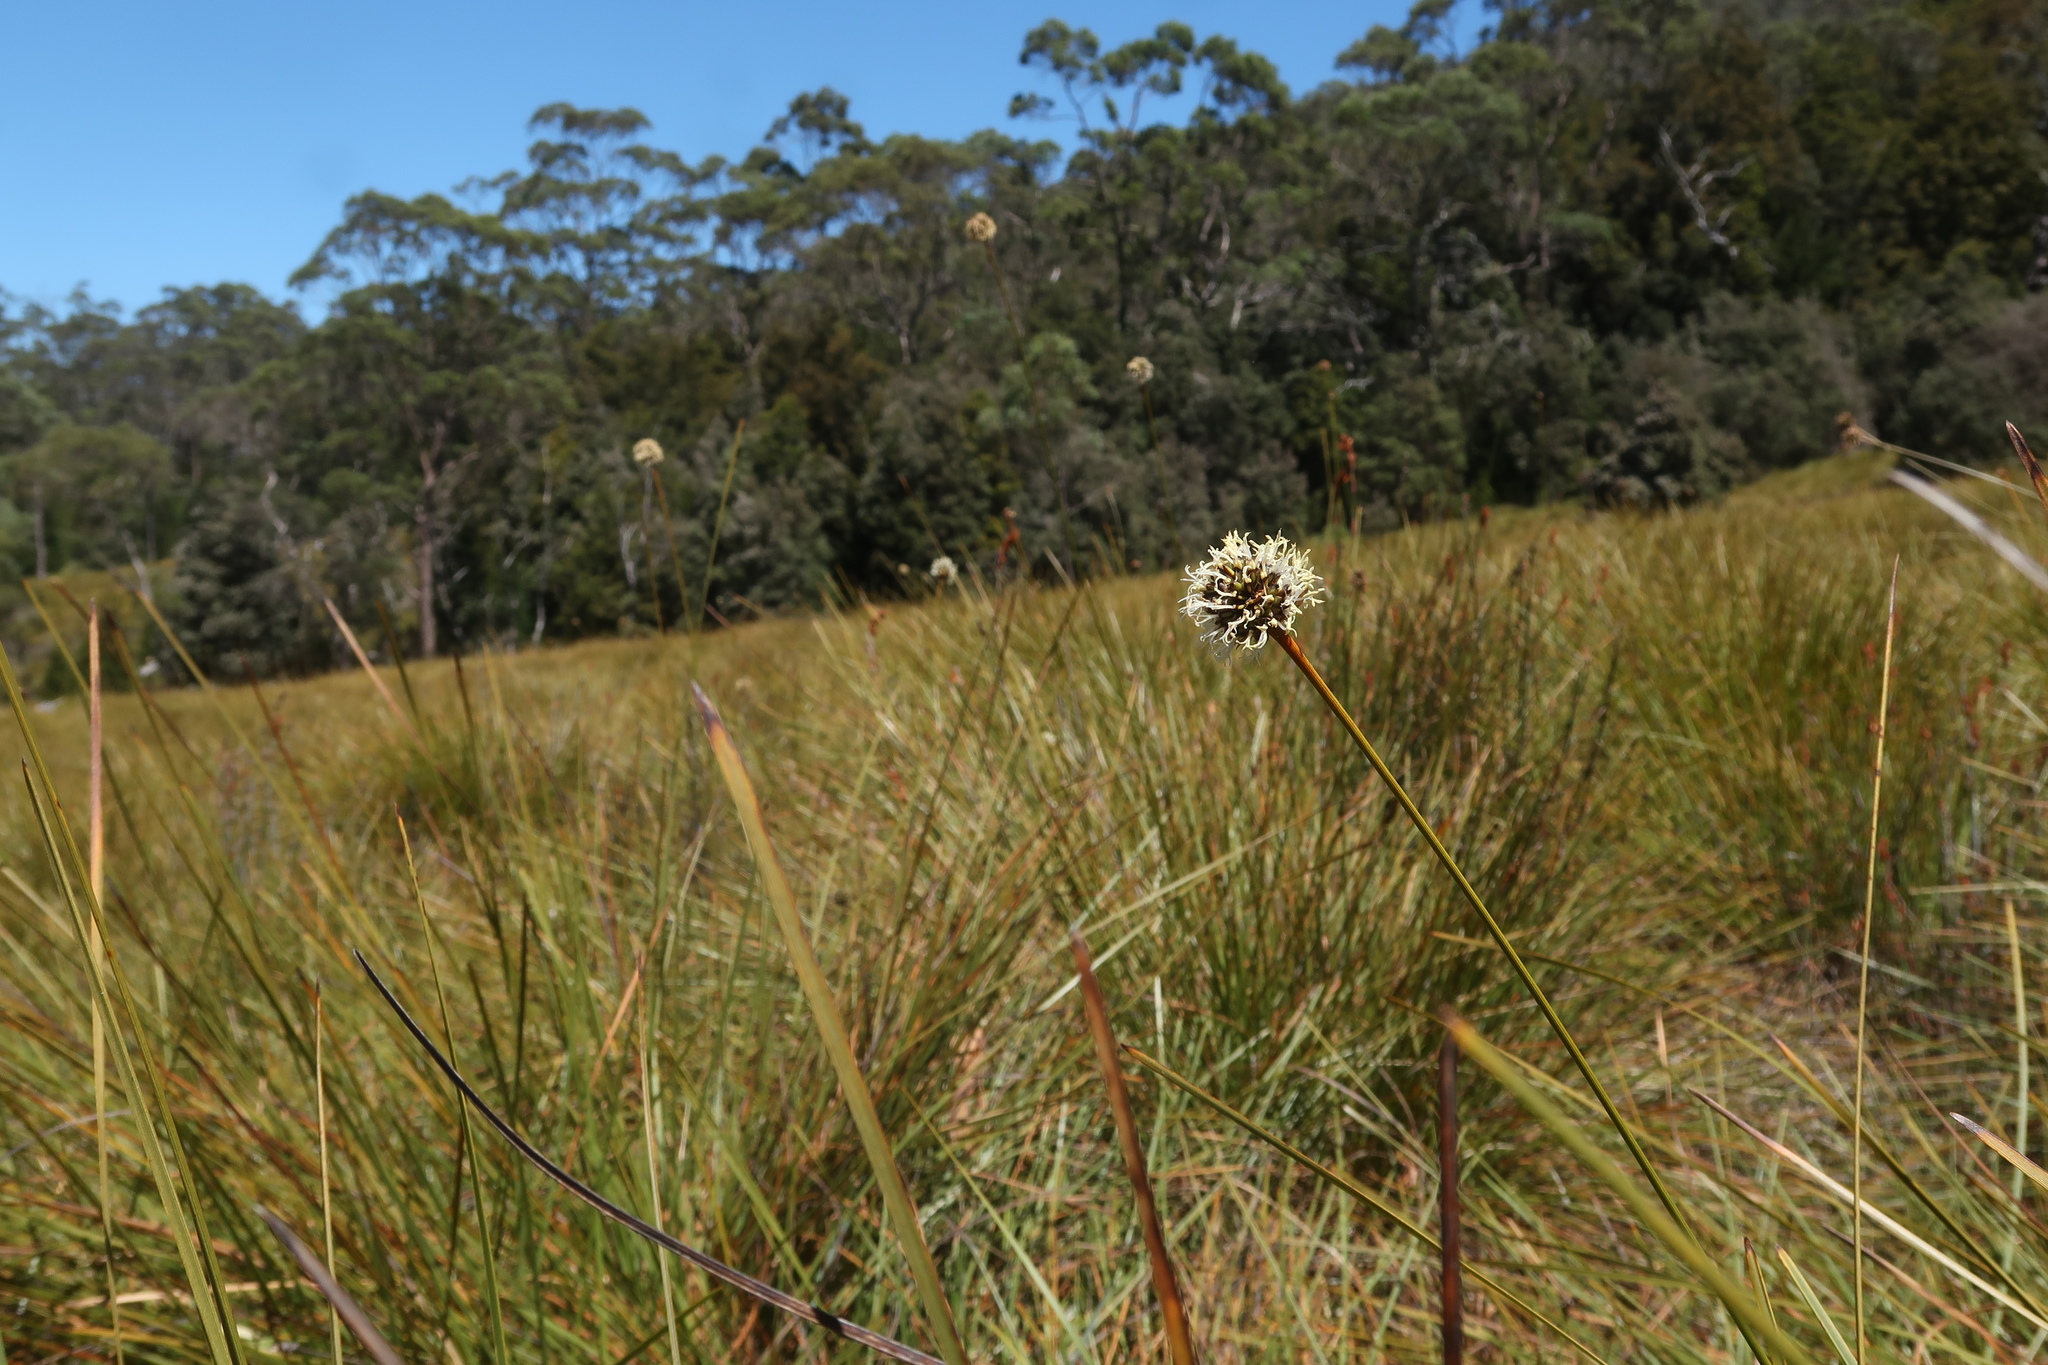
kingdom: Plantae
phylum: Tracheophyta
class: Liliopsida
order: Poales
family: Cyperaceae
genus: Gymnoschoenus
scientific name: Gymnoschoenus sphaerocephalus
